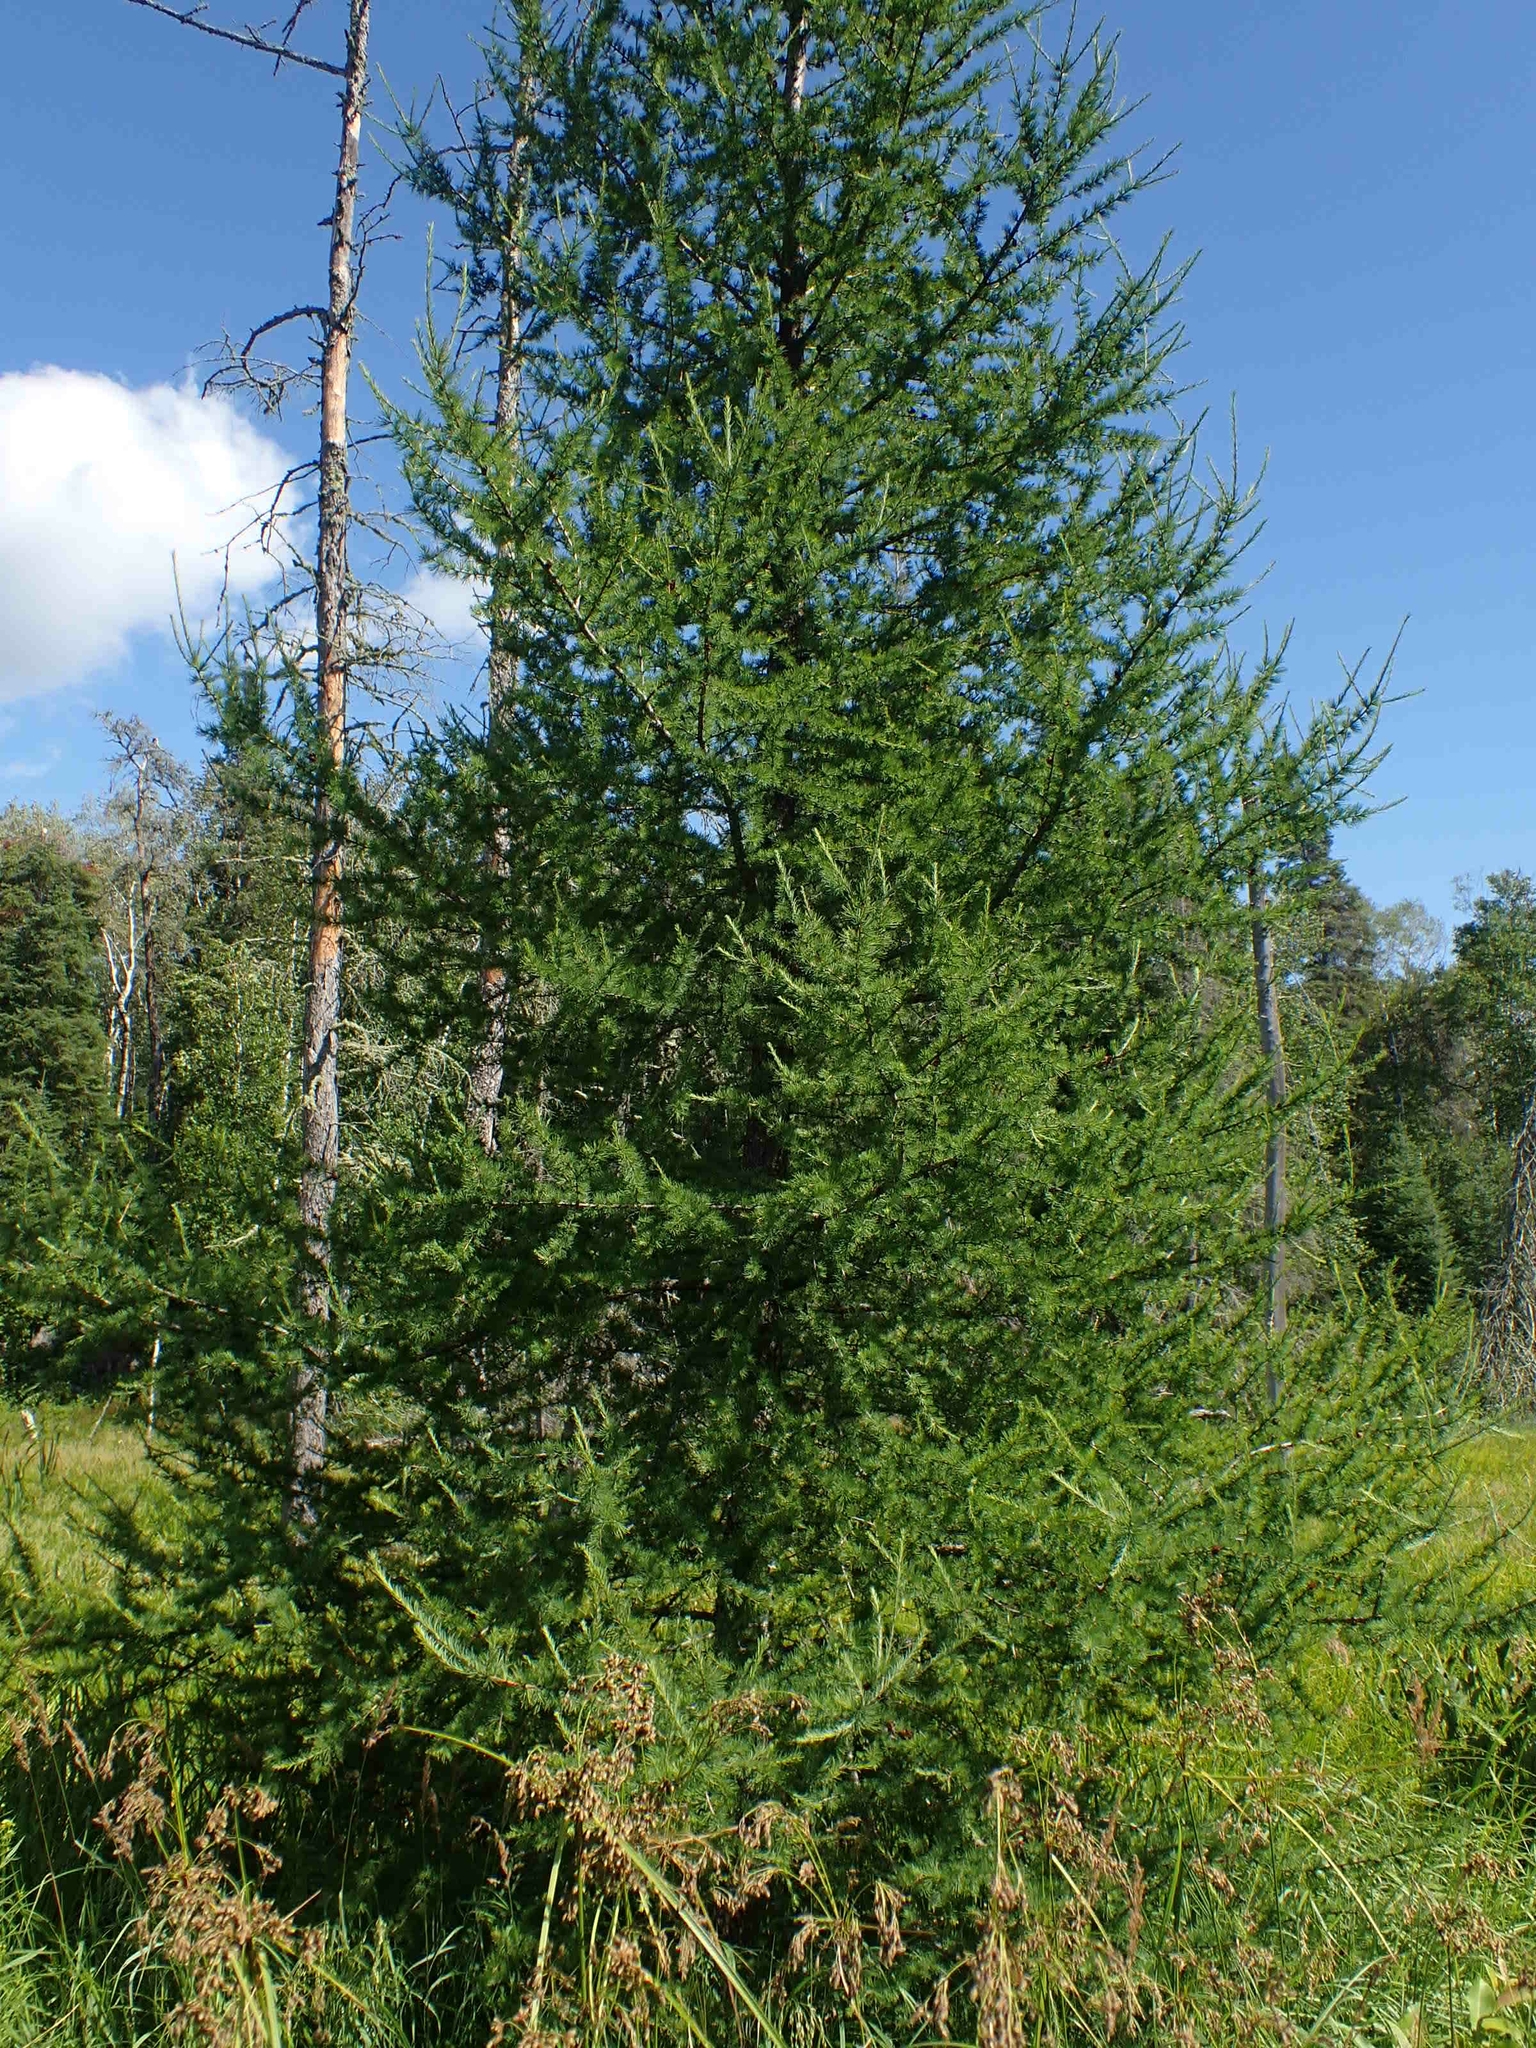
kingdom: Plantae
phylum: Tracheophyta
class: Pinopsida
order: Pinales
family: Pinaceae
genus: Larix
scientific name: Larix laricina
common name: American larch
